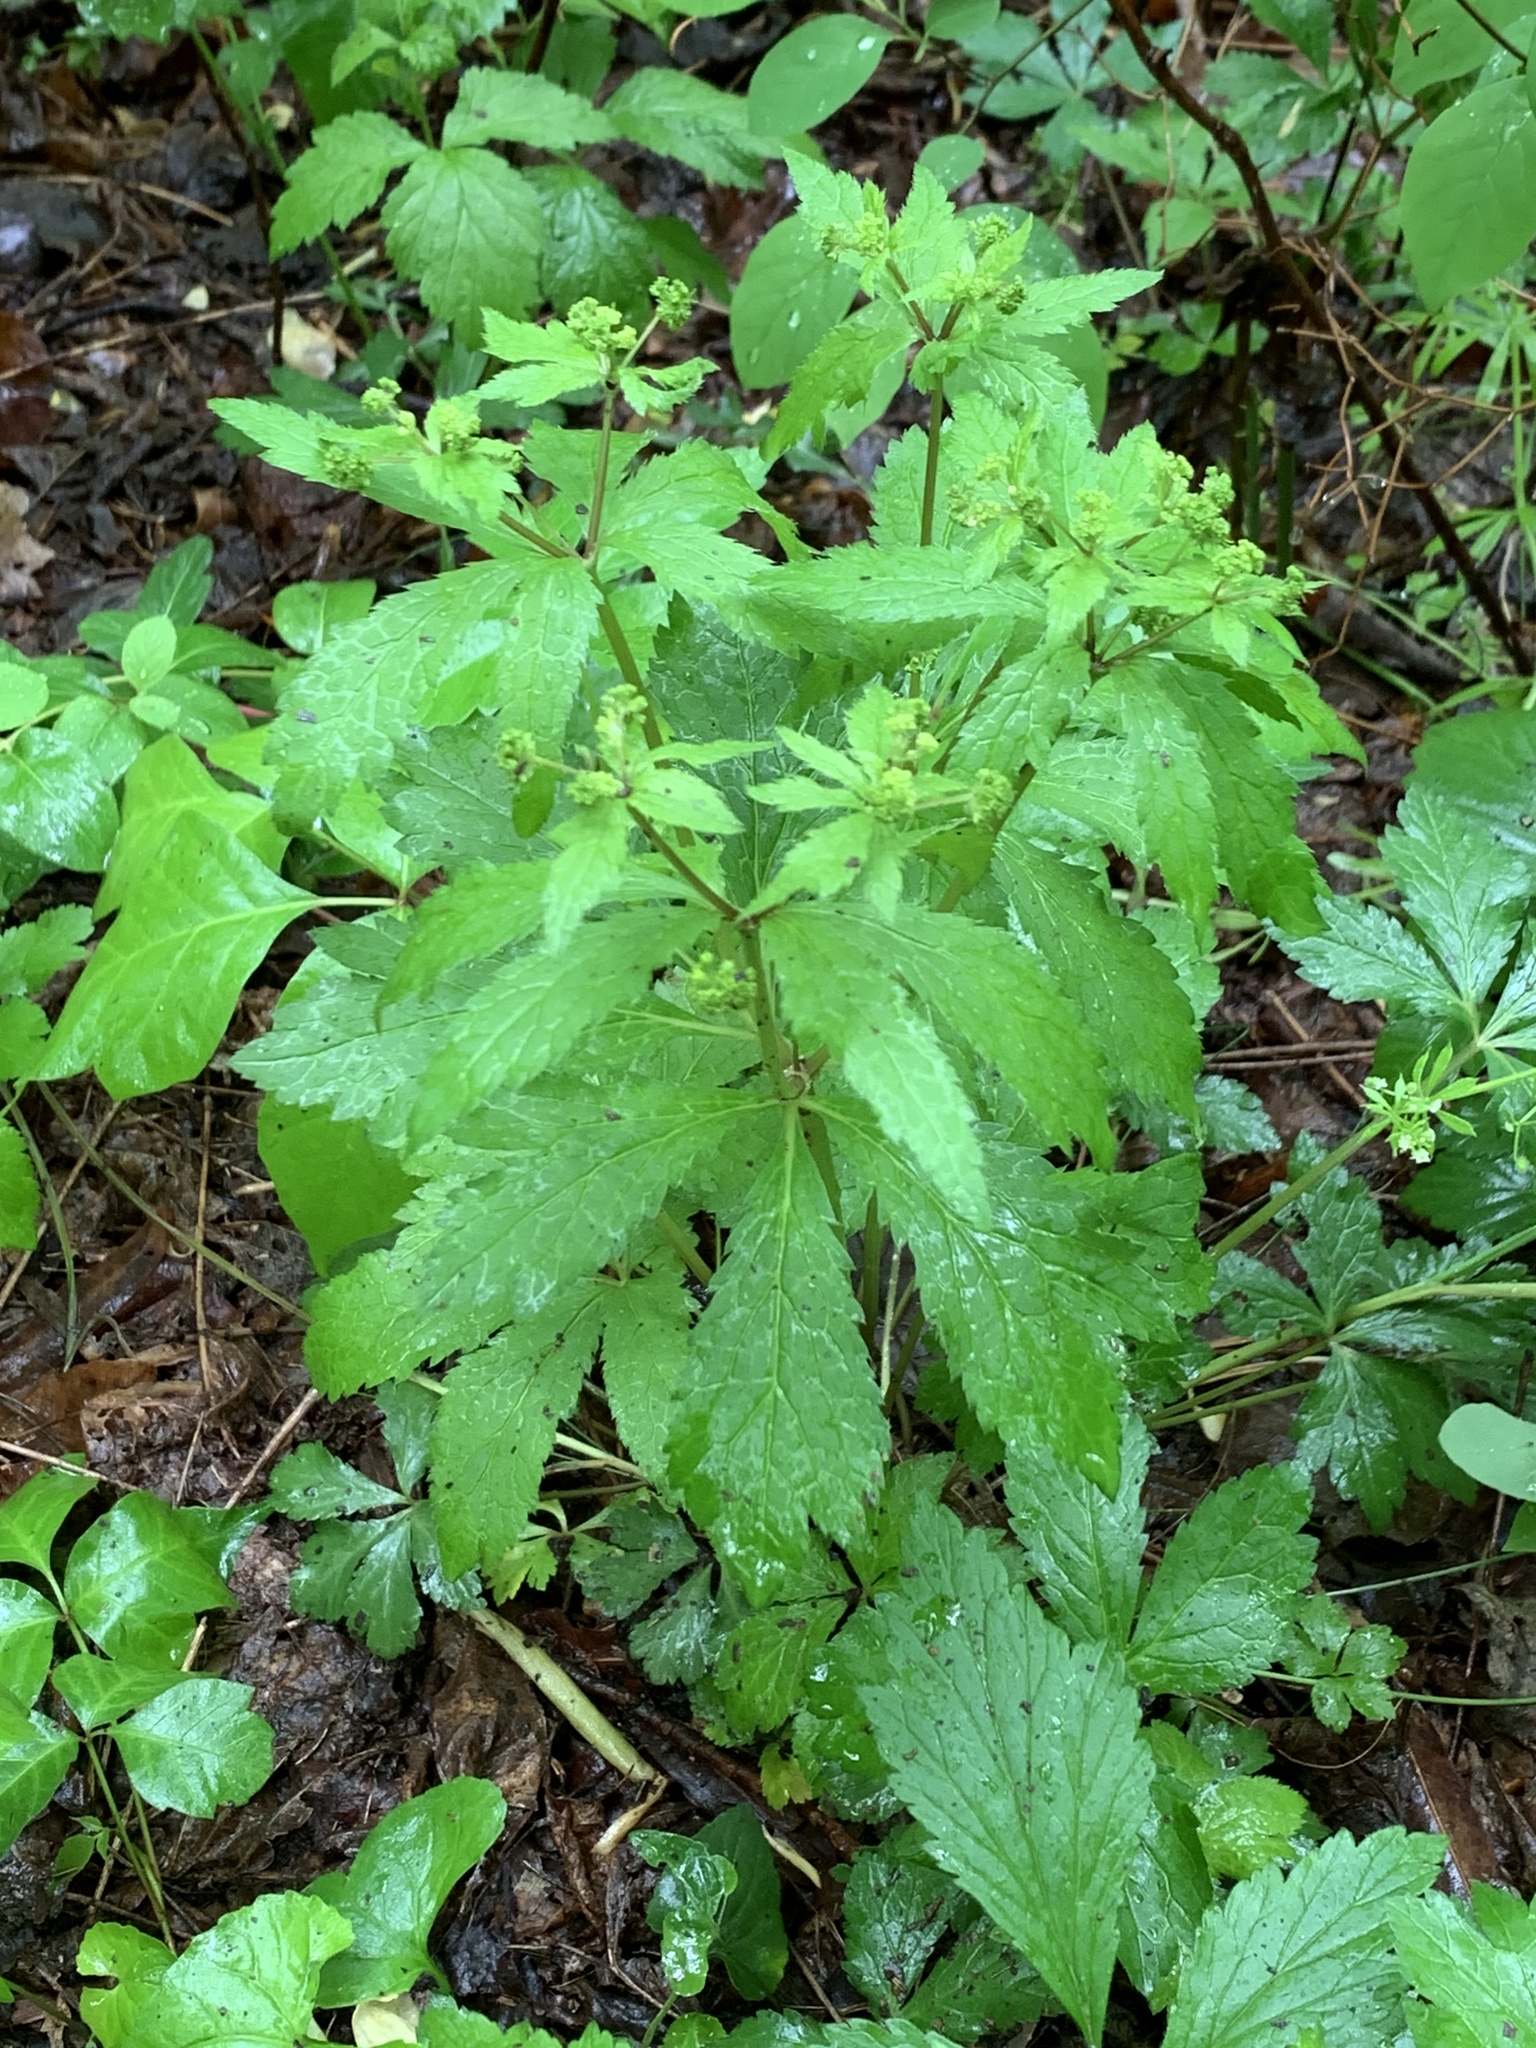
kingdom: Plantae
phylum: Tracheophyta
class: Magnoliopsida
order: Apiales
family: Apiaceae
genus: Sanicula
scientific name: Sanicula odorata
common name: Cluster sanicle
